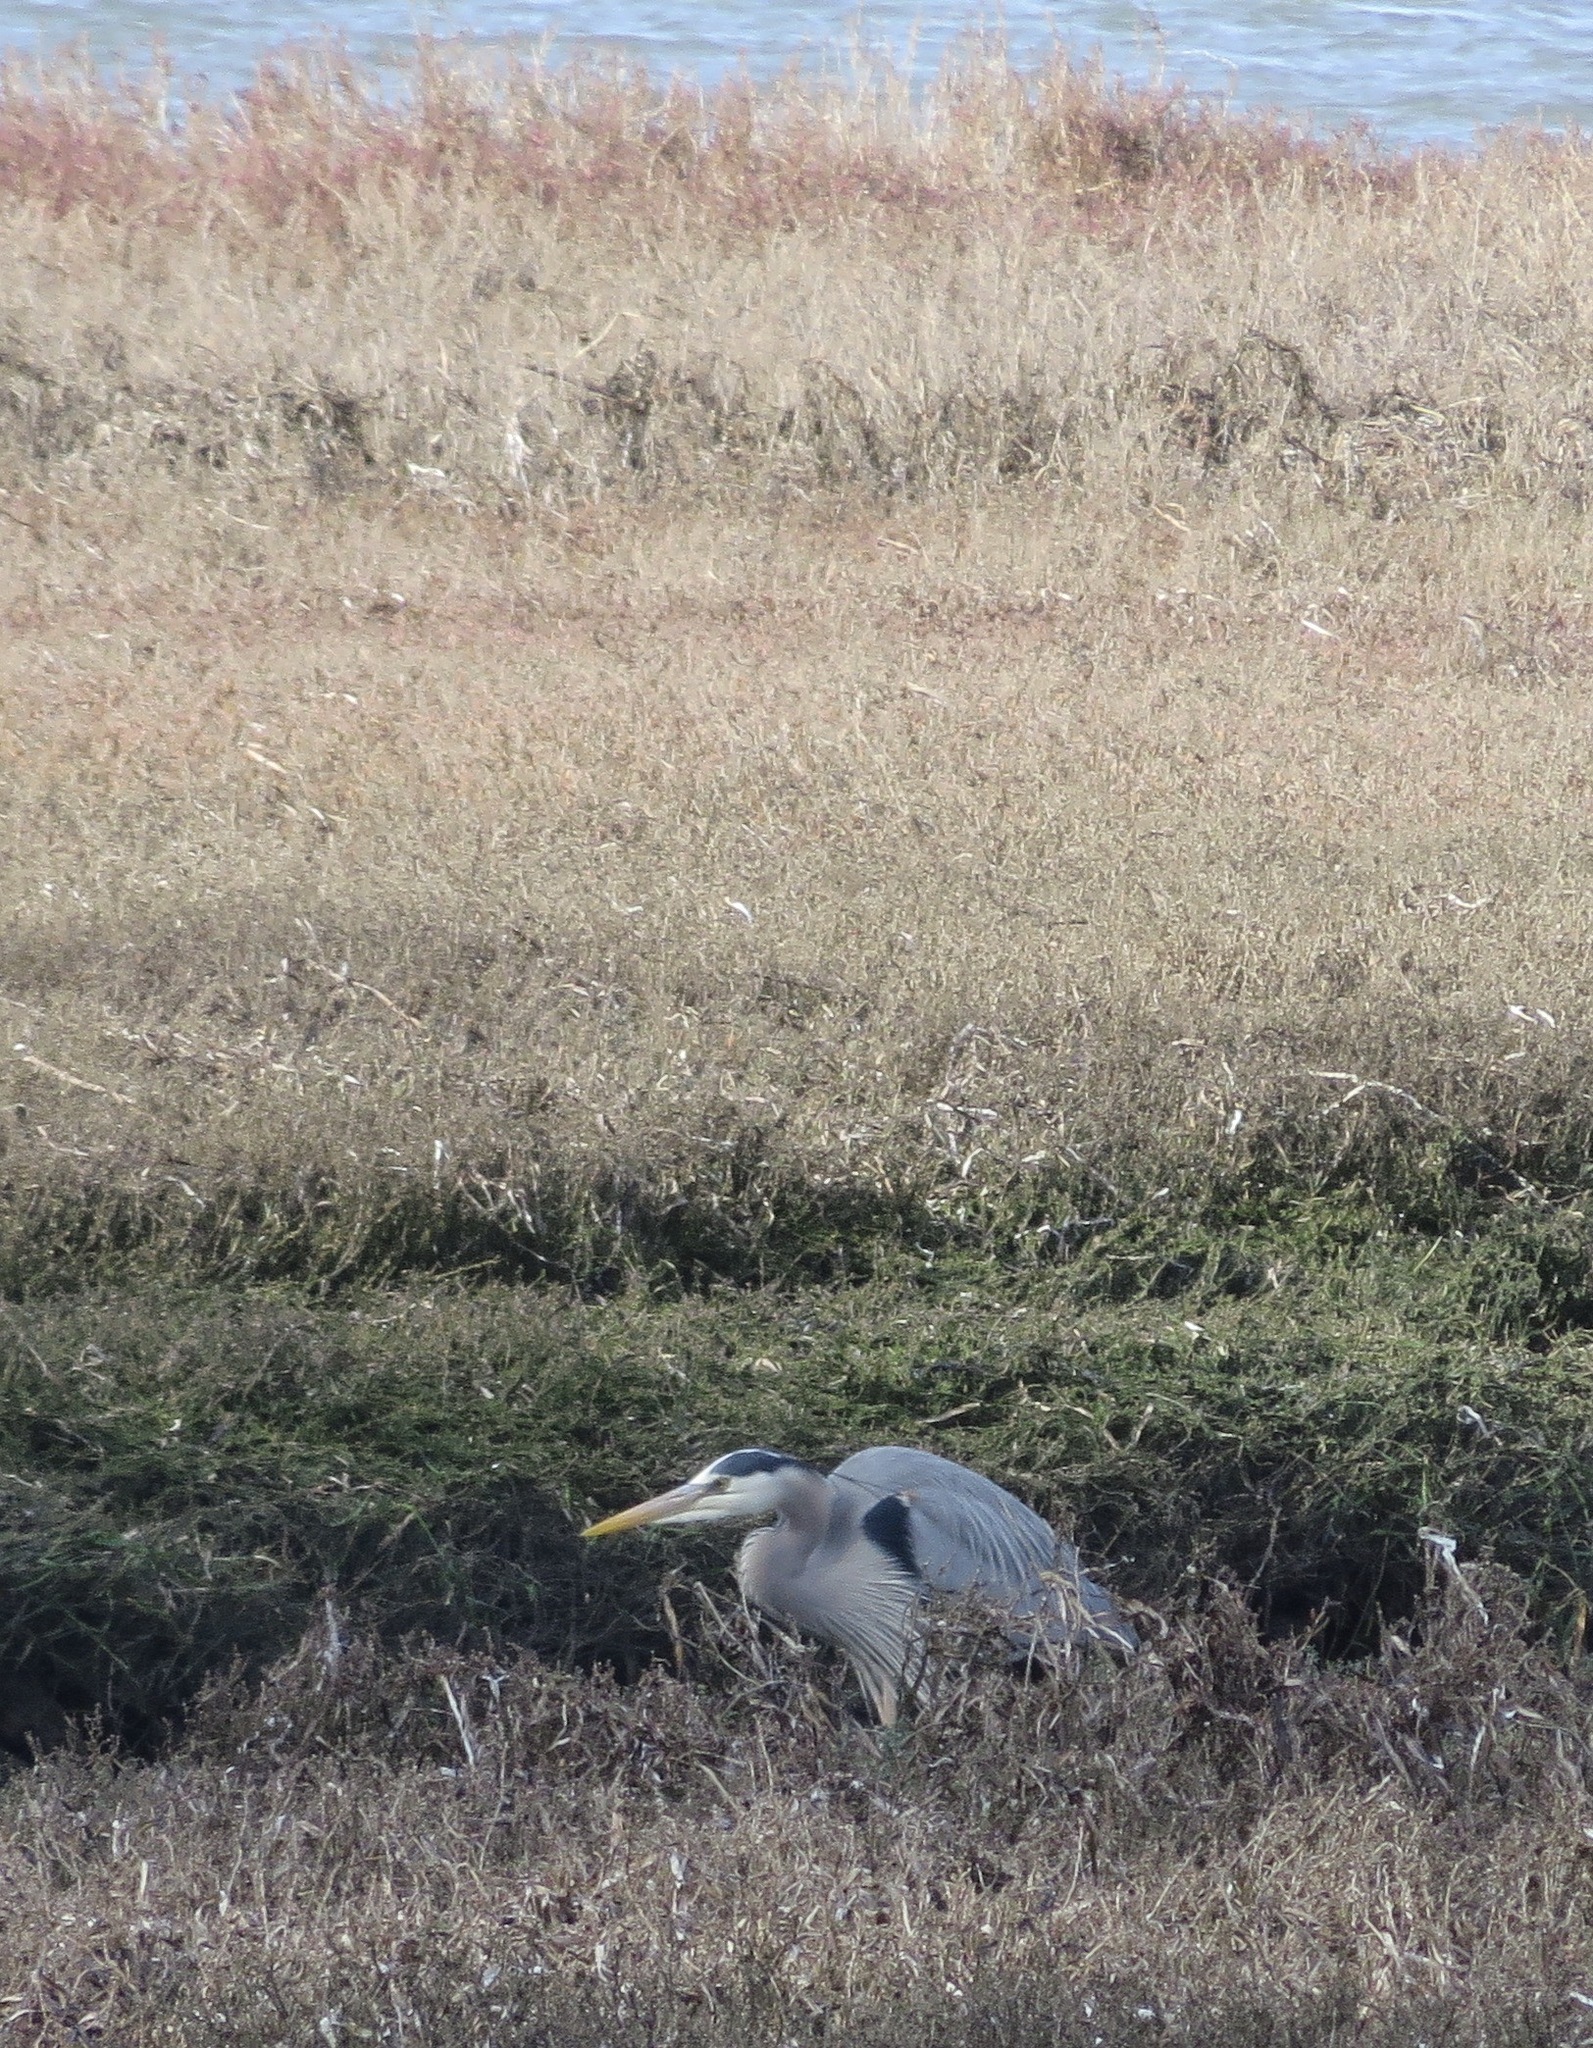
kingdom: Animalia
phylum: Chordata
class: Aves
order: Pelecaniformes
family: Ardeidae
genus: Ardea
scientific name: Ardea herodias
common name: Great blue heron
